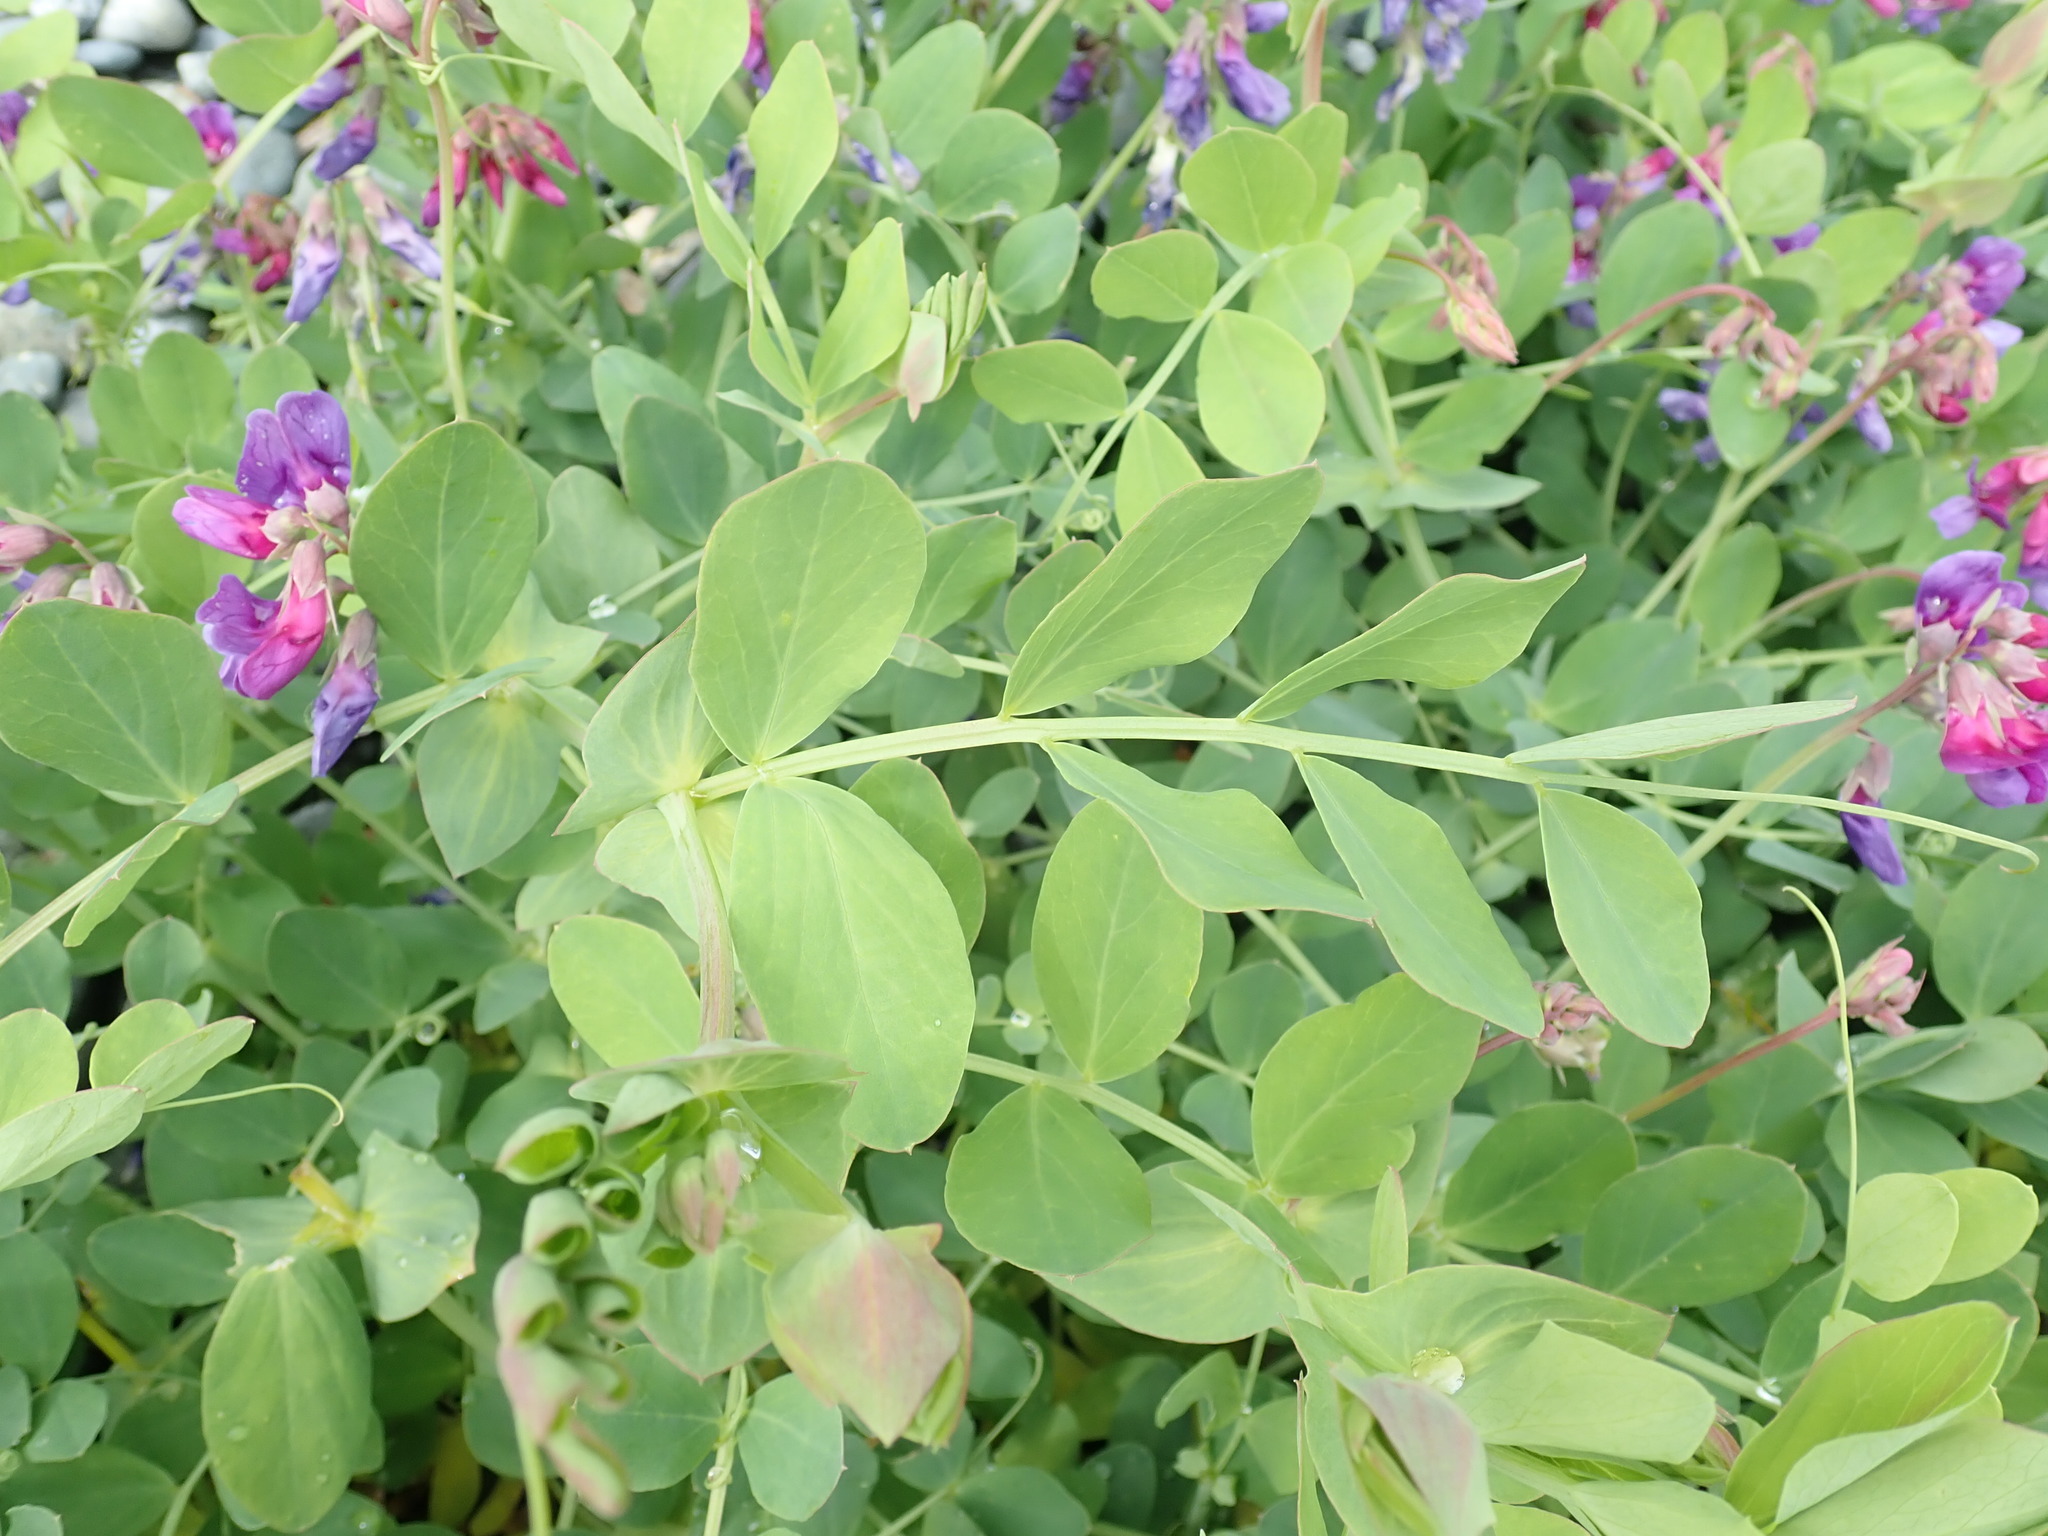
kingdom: Plantae
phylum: Tracheophyta
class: Magnoliopsida
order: Fabales
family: Fabaceae
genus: Lathyrus
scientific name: Lathyrus japonicus
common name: Sea pea
